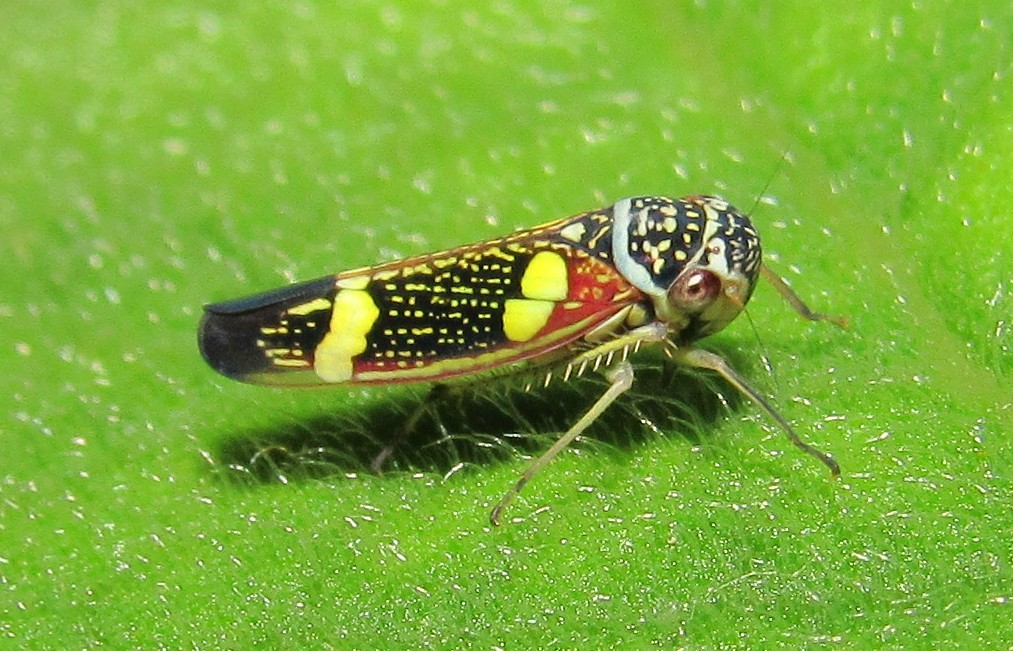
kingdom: Animalia
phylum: Arthropoda
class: Insecta
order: Hemiptera
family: Cicadellidae
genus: Macugonalia
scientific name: Macugonalia leucomelas
